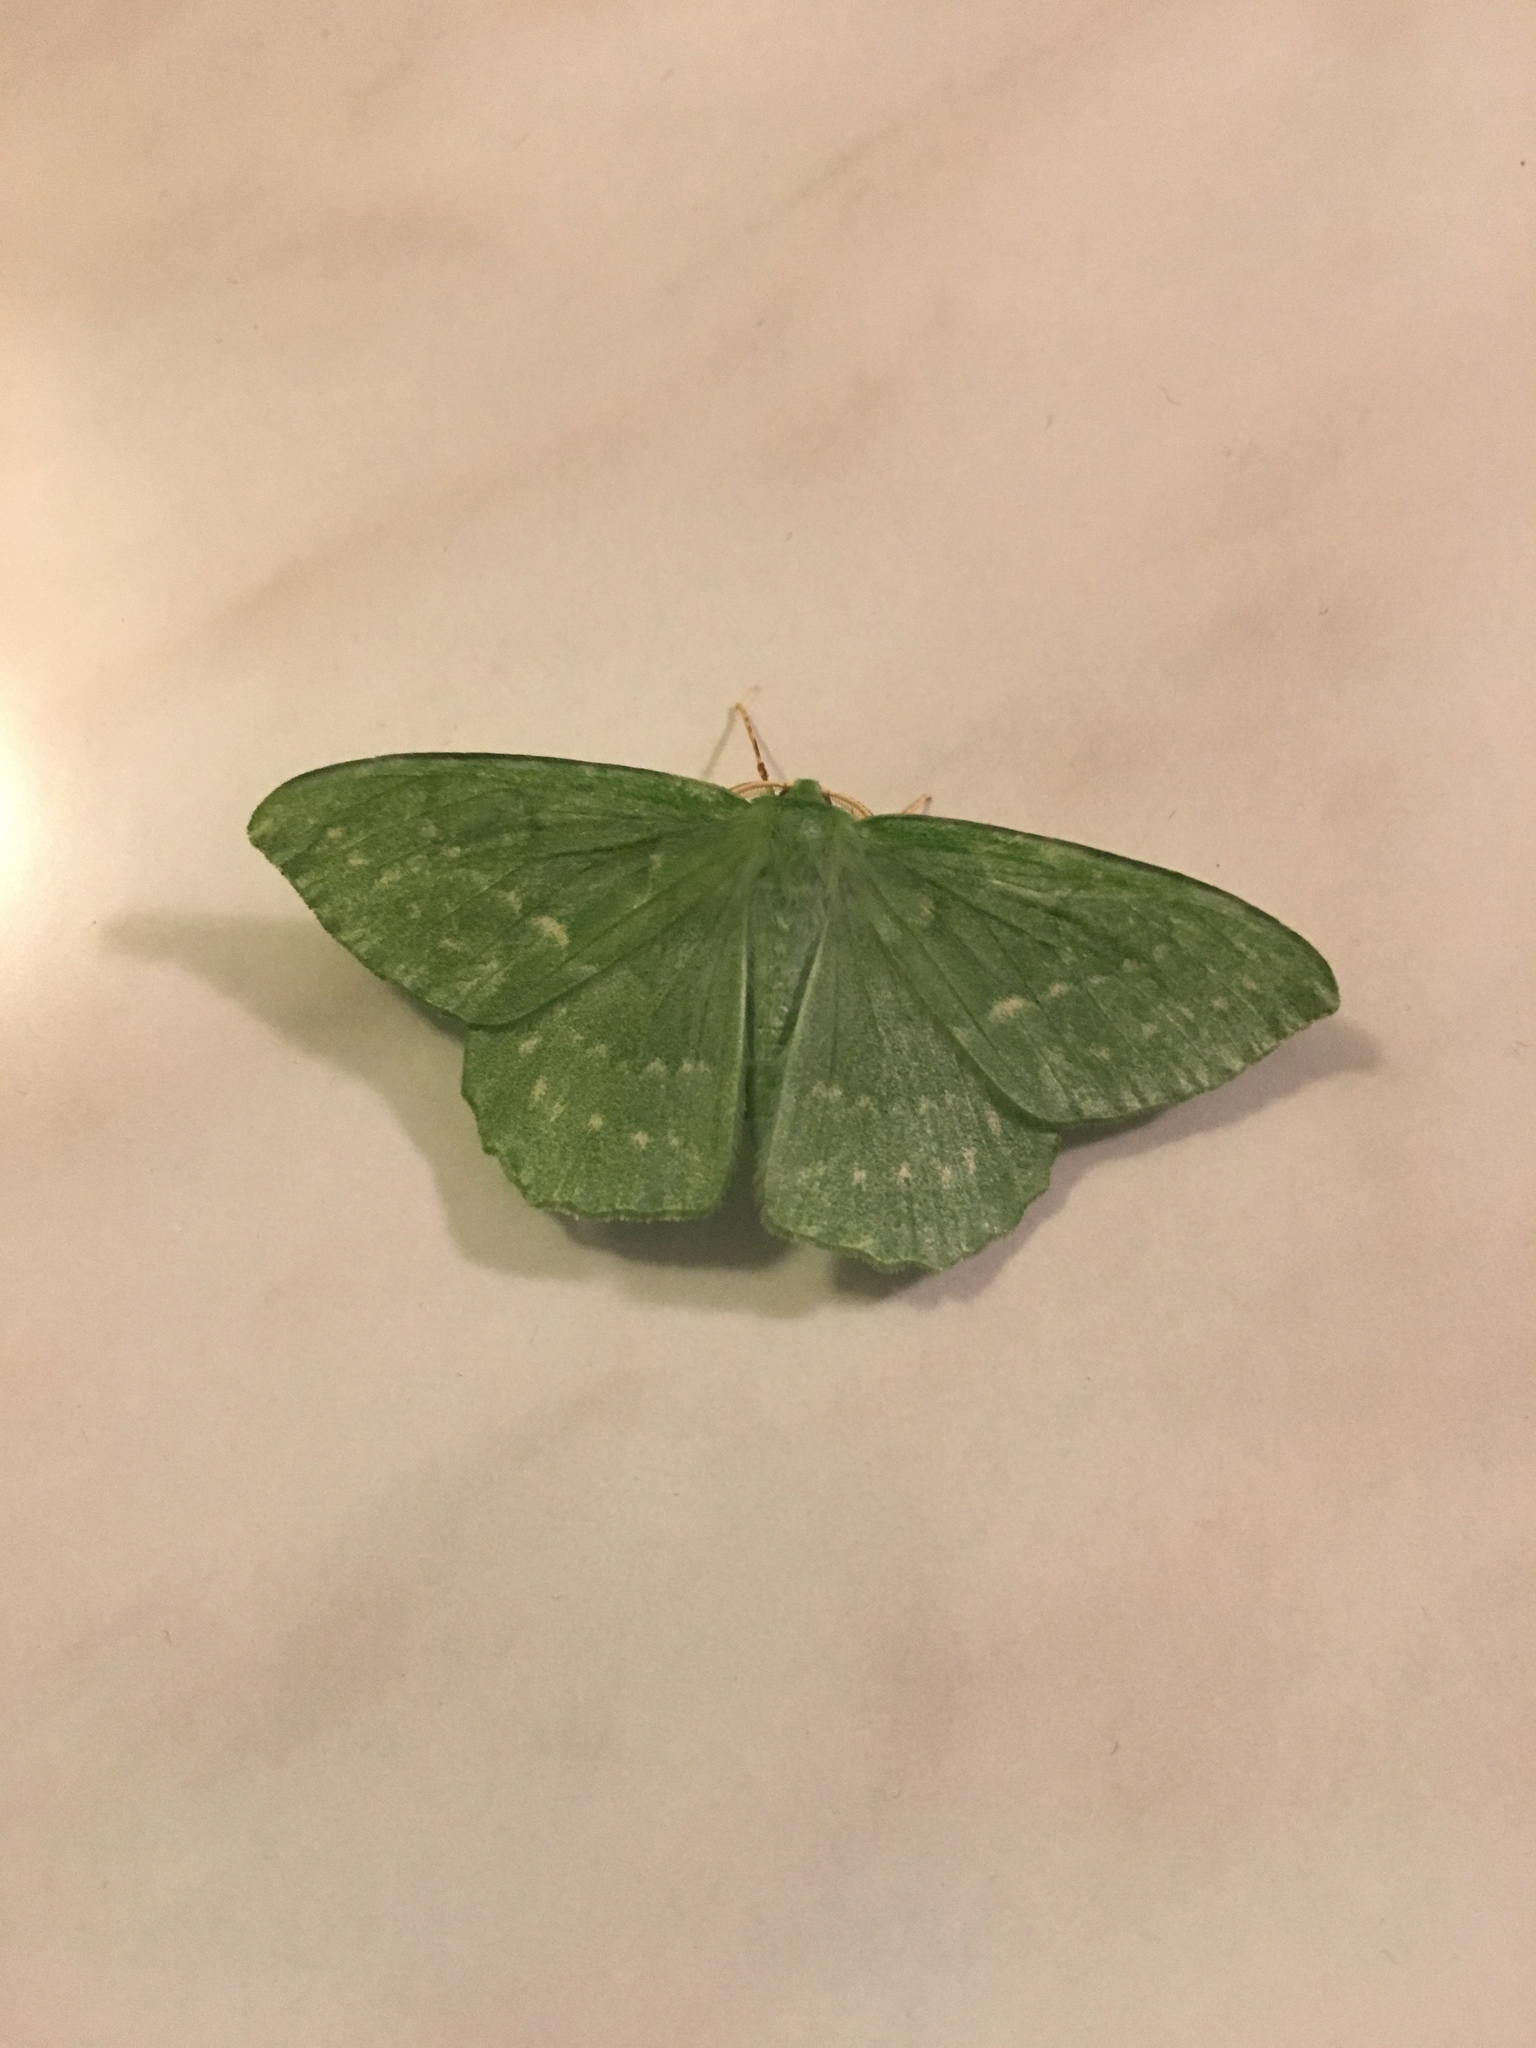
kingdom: Animalia
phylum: Arthropoda
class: Insecta
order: Lepidoptera
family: Geometridae
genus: Geometra
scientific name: Geometra papilionaria
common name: Large emerald
